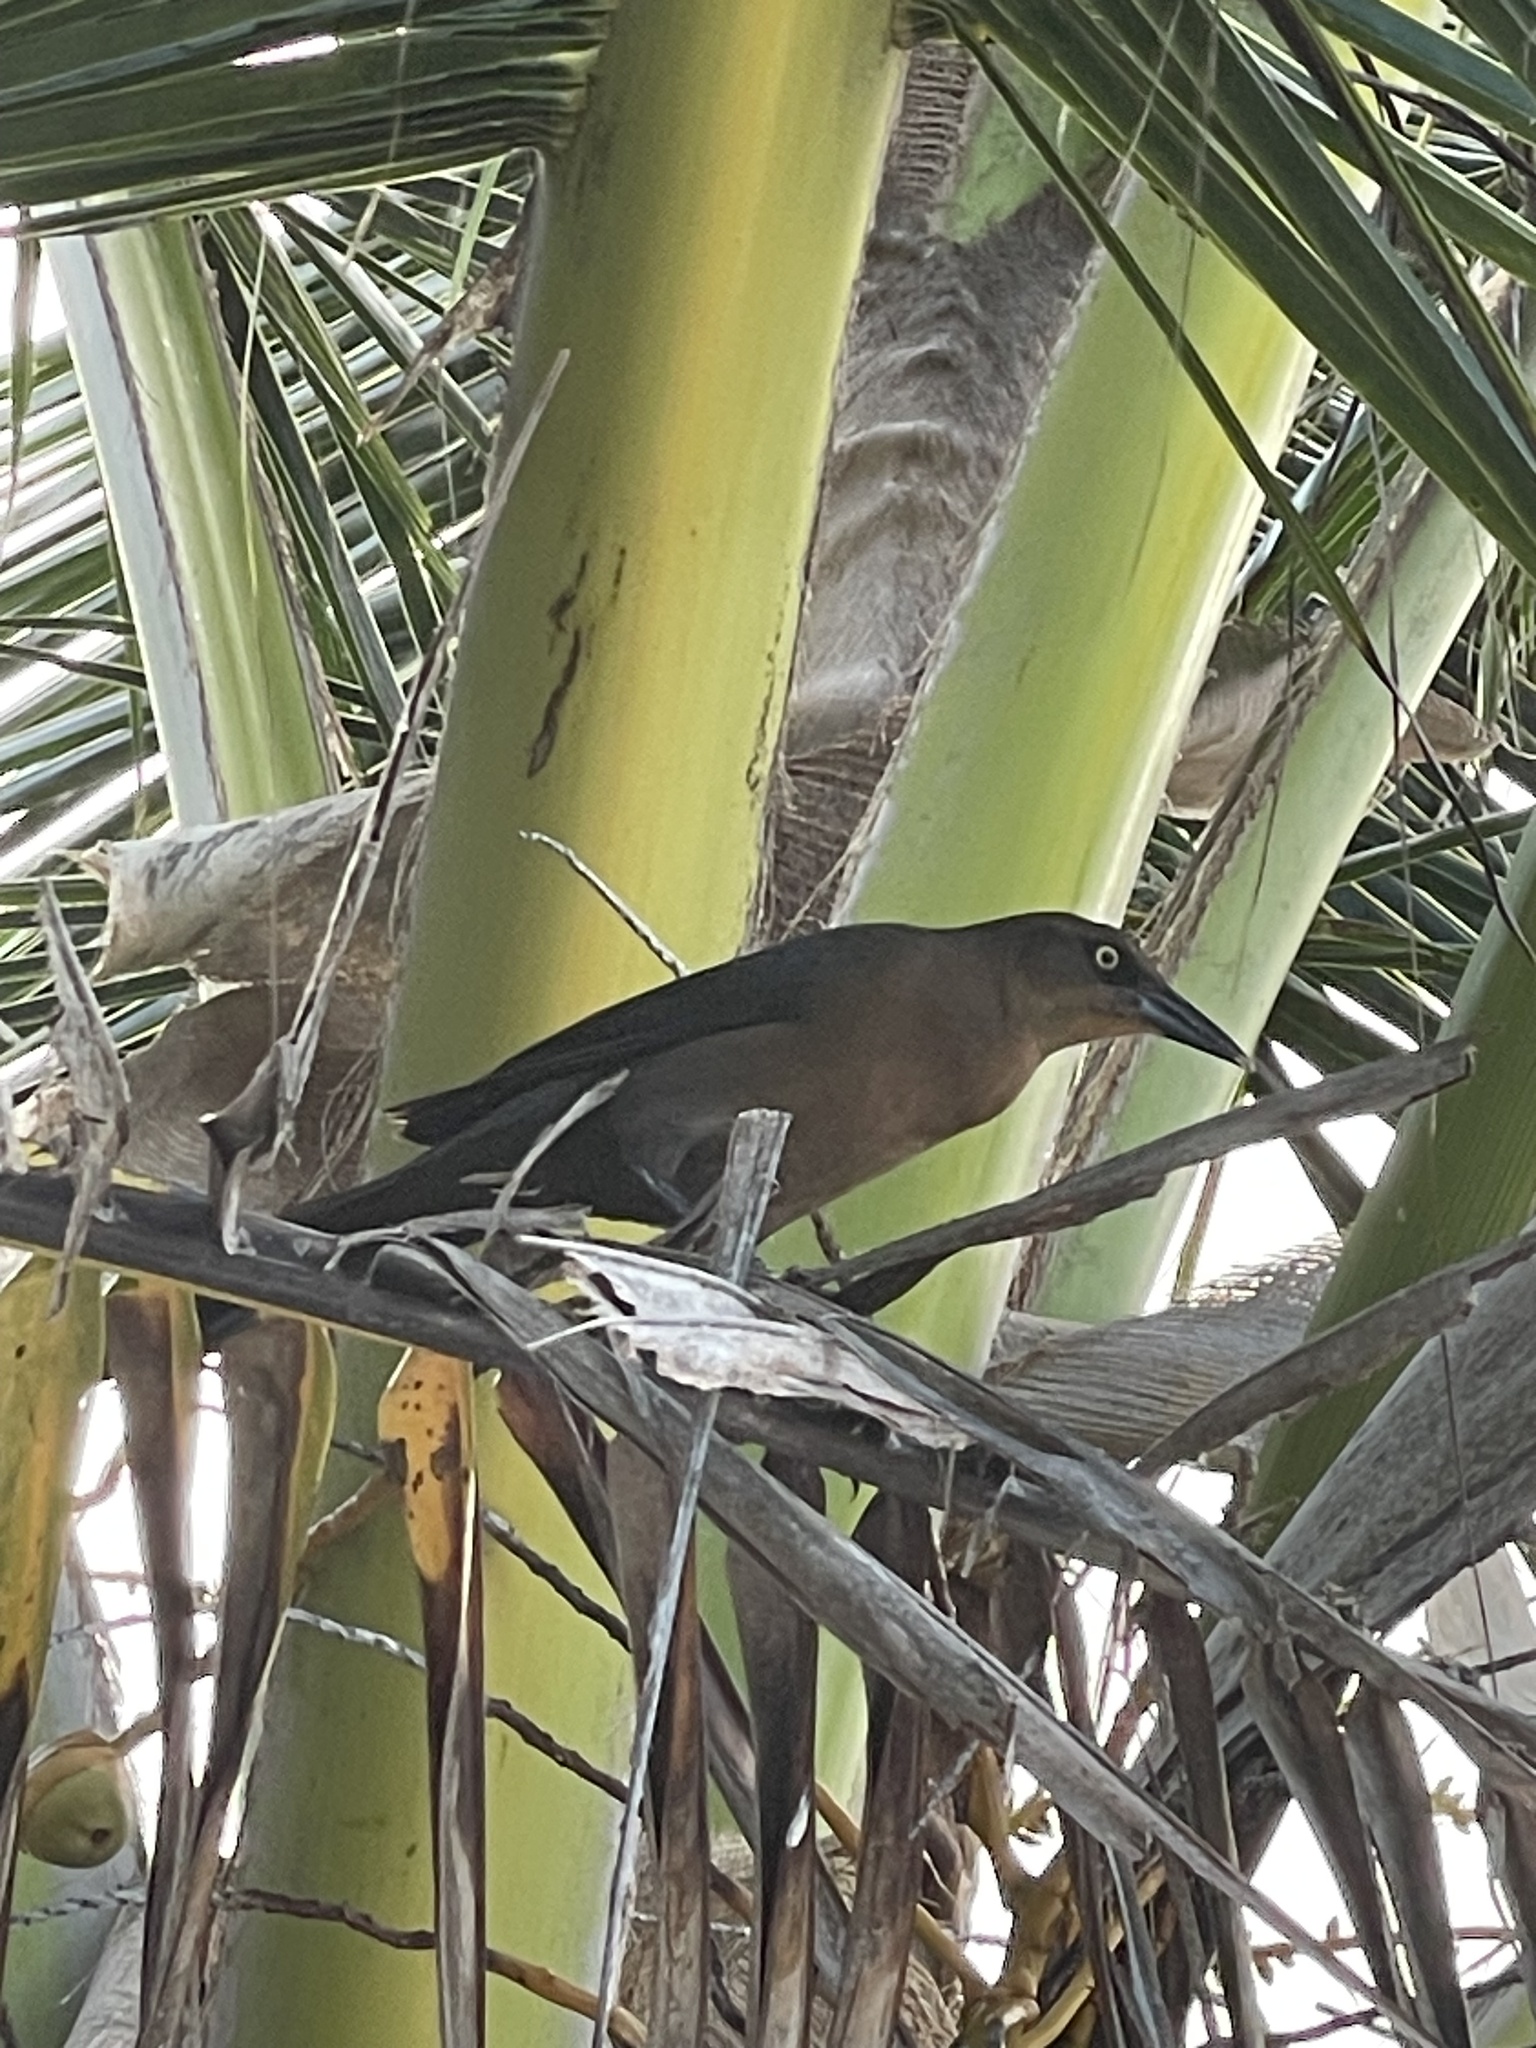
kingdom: Animalia
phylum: Chordata
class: Aves
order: Passeriformes
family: Icteridae
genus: Quiscalus
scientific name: Quiscalus mexicanus
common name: Great-tailed grackle
